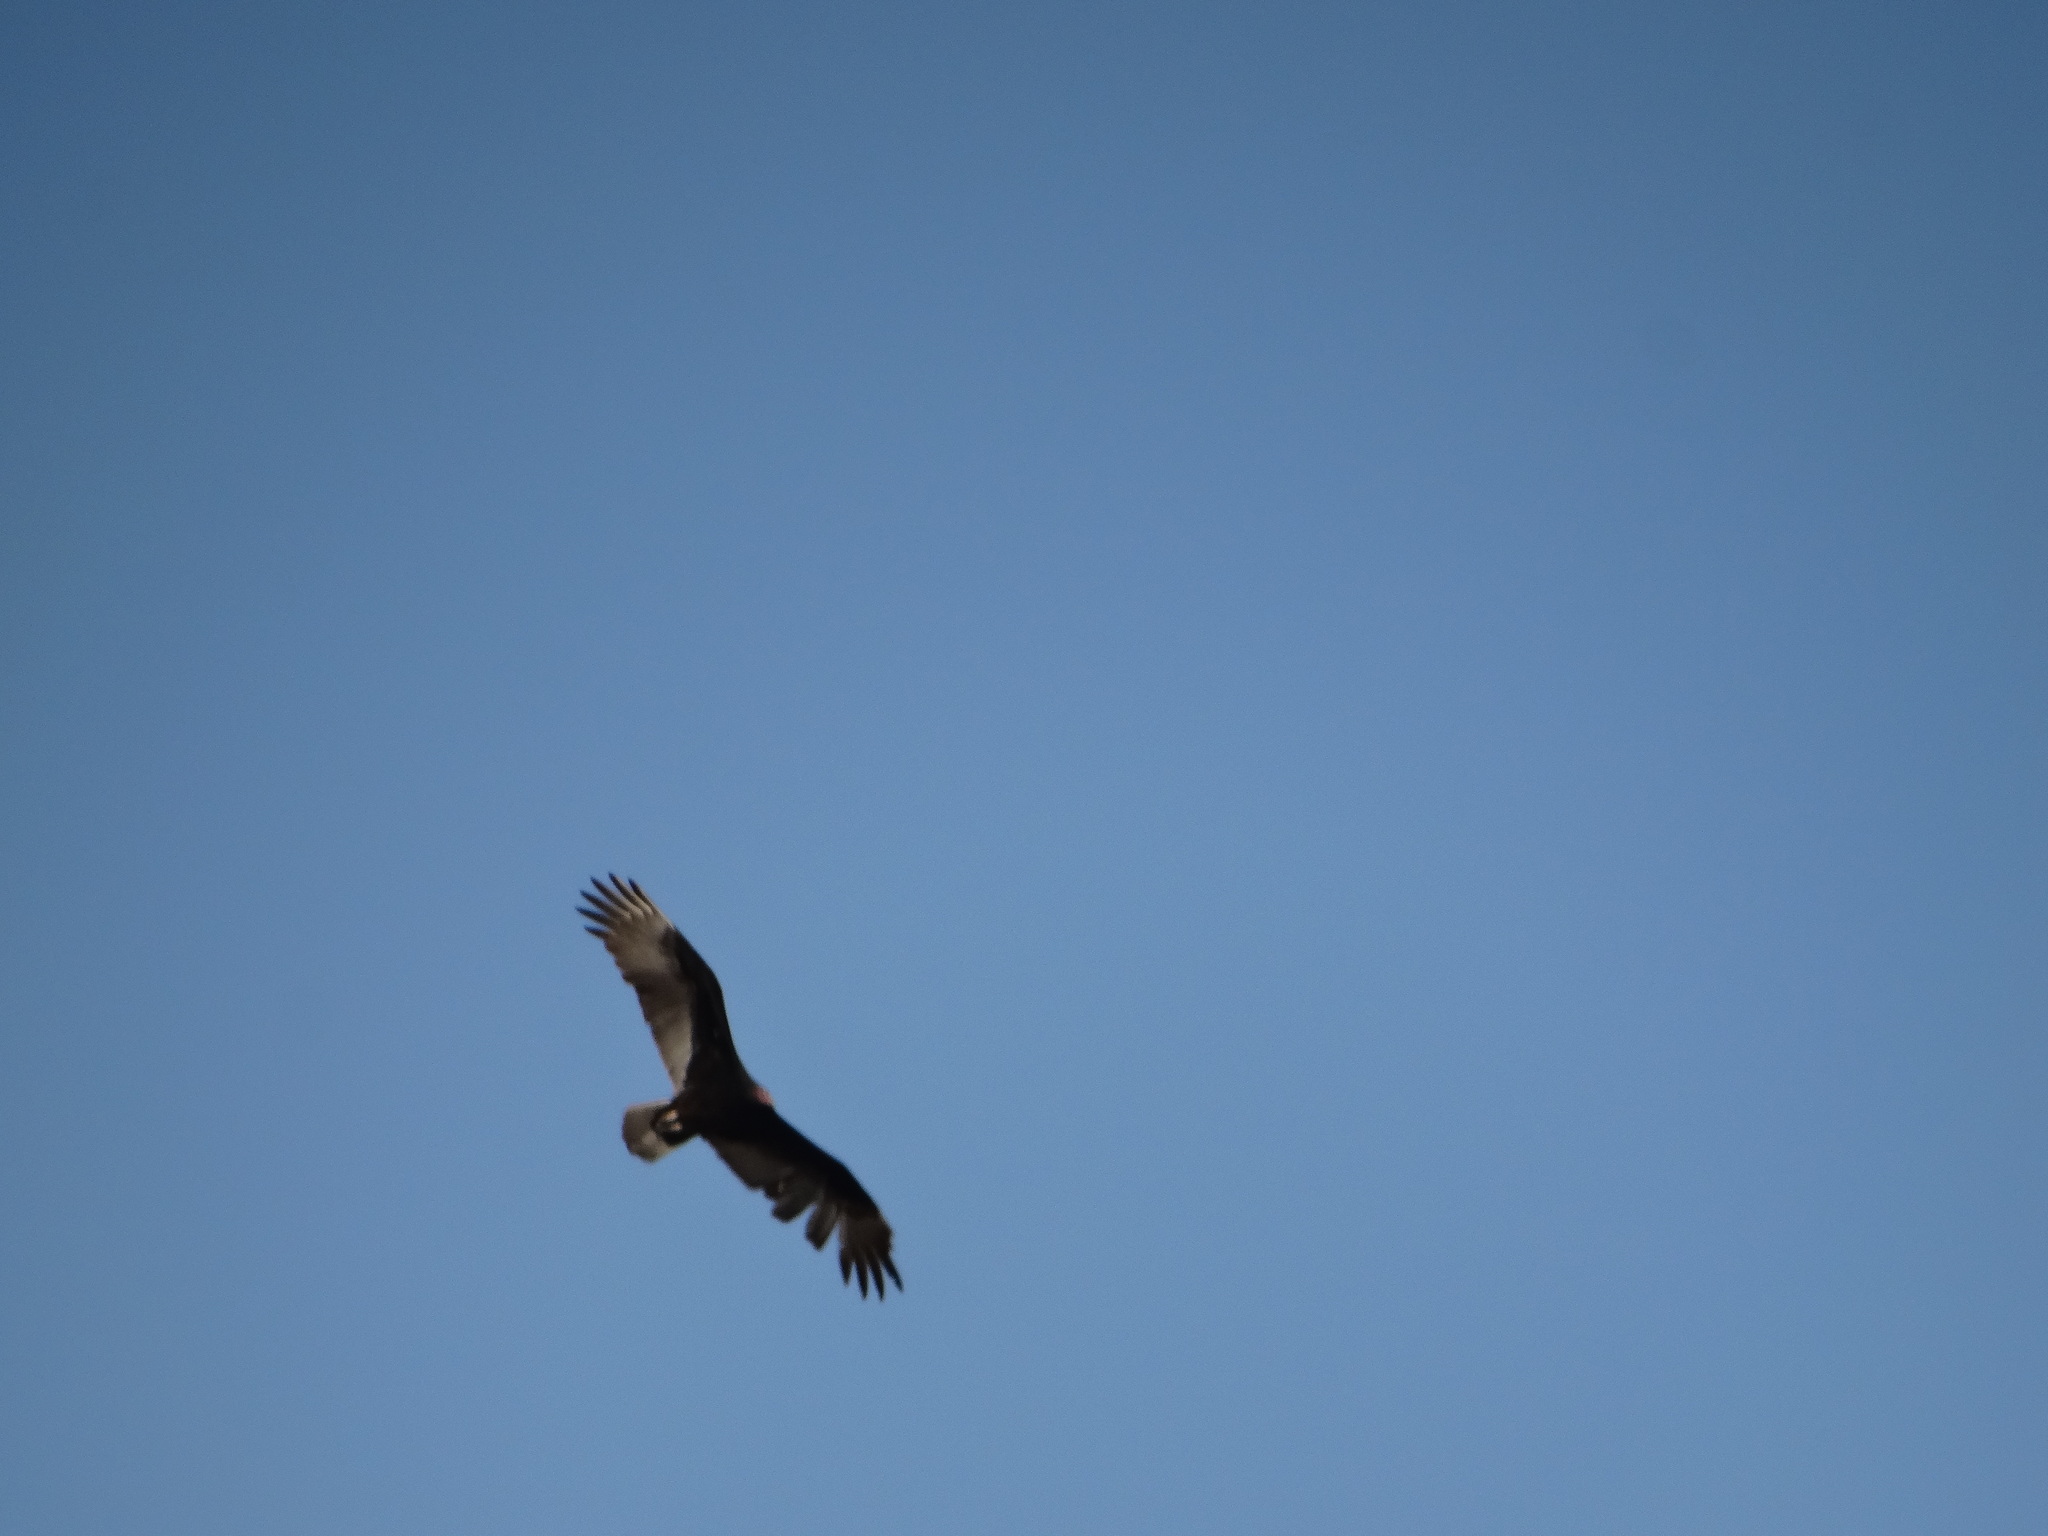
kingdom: Animalia
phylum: Chordata
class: Aves
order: Accipitriformes
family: Cathartidae
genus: Cathartes
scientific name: Cathartes aura
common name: Turkey vulture
